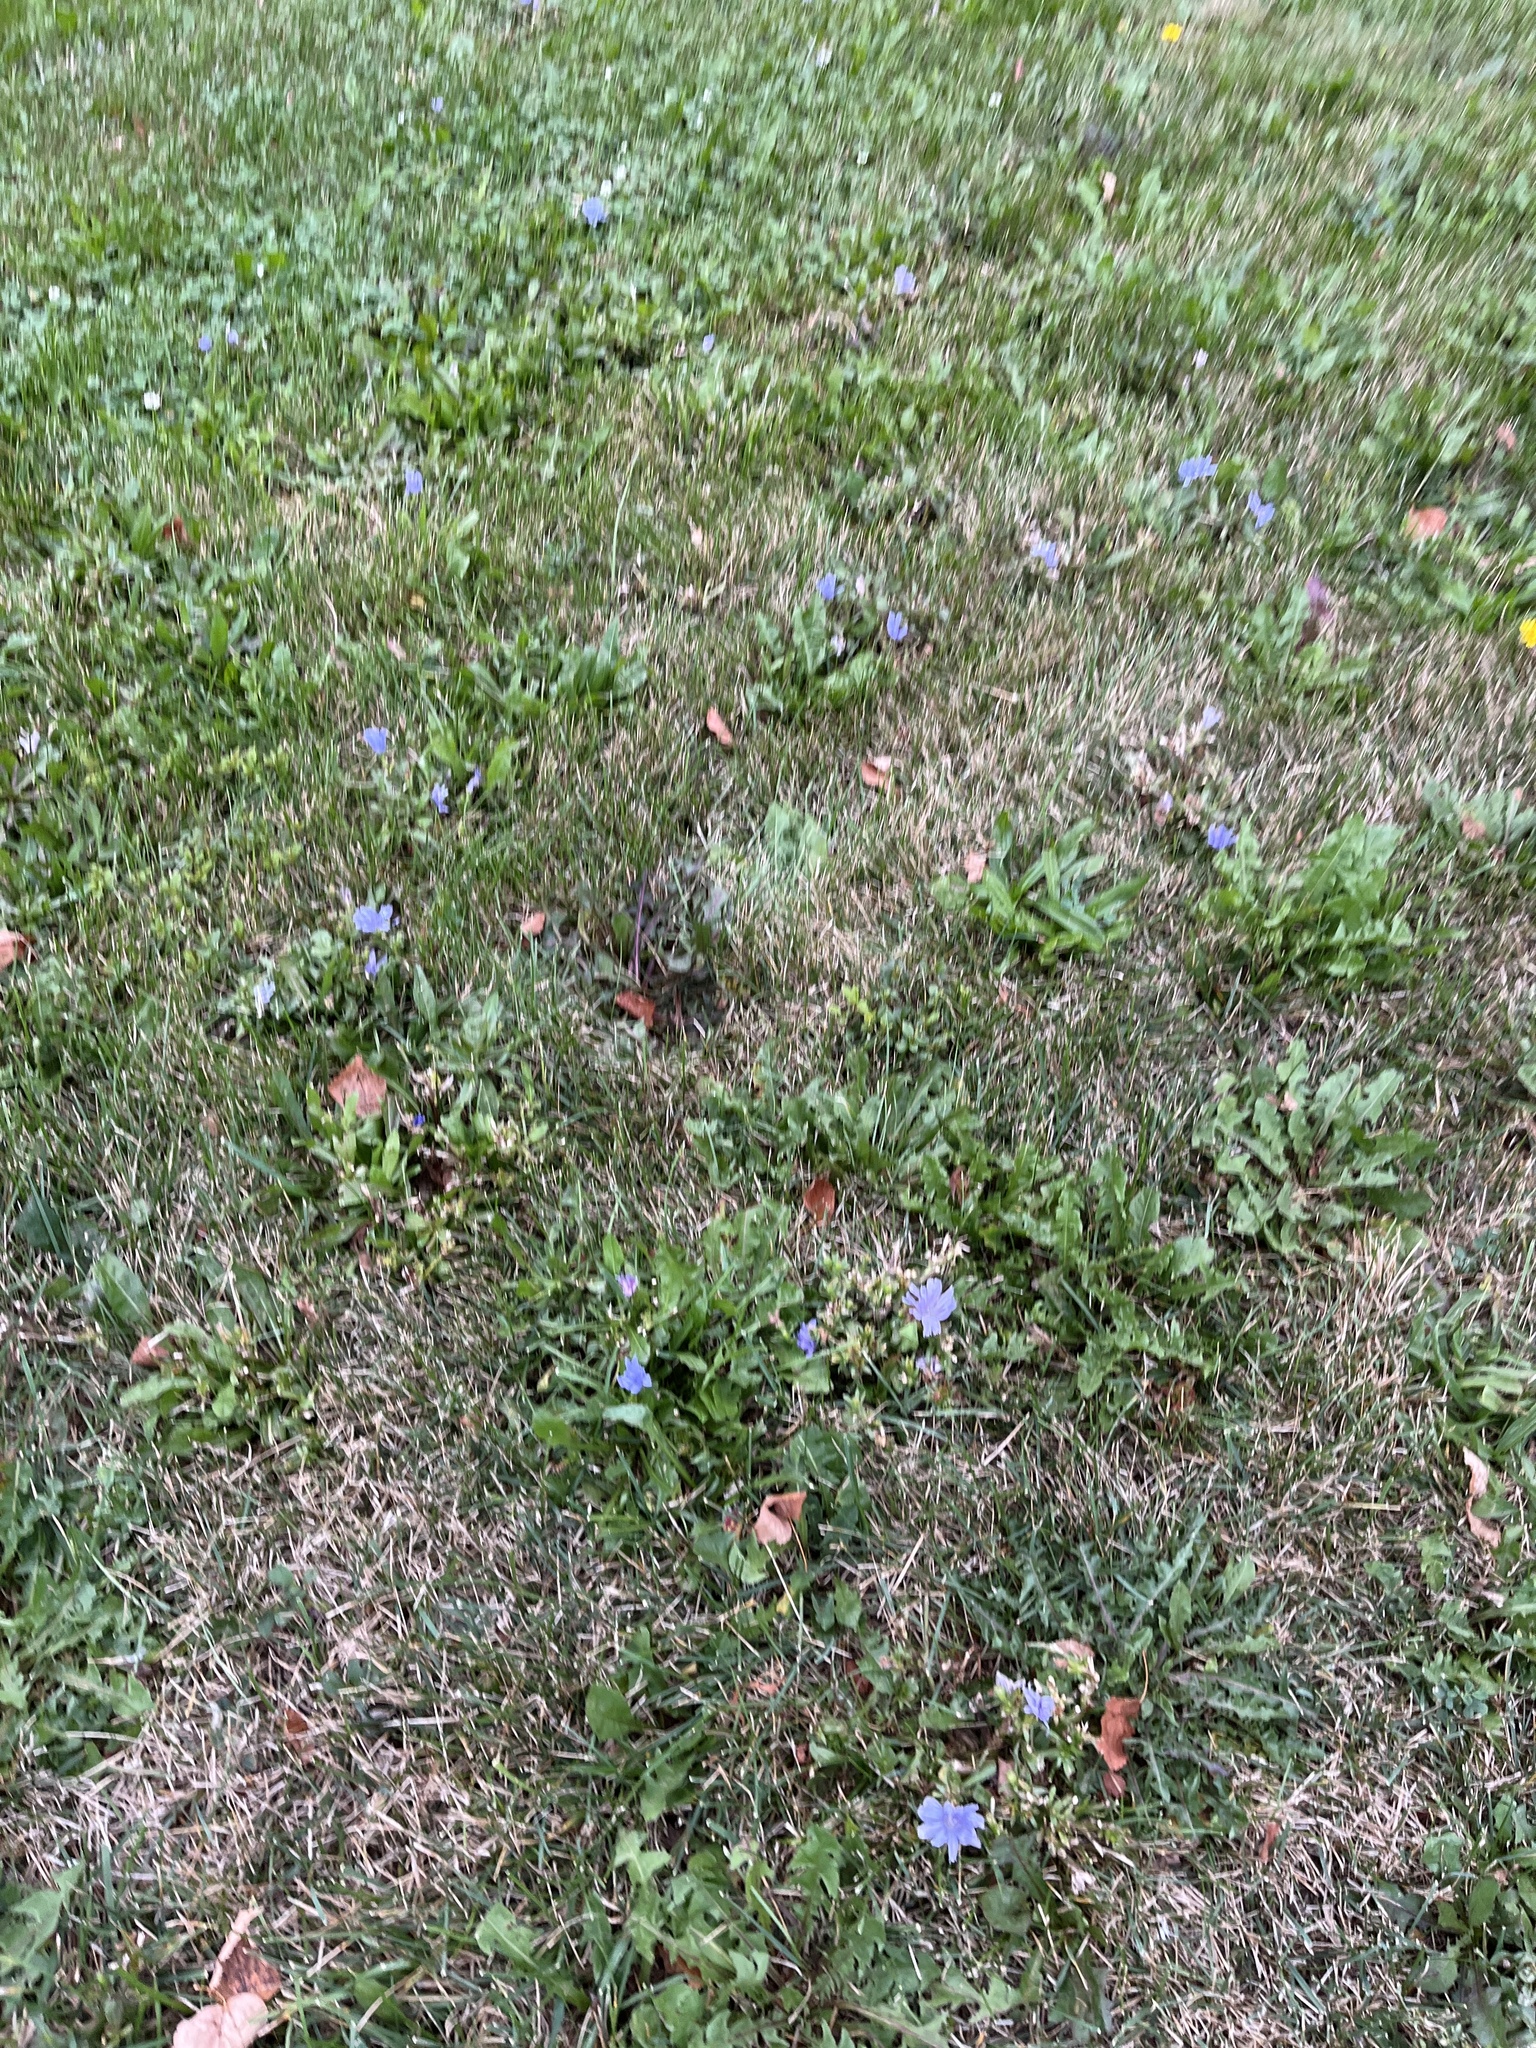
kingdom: Plantae
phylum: Tracheophyta
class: Magnoliopsida
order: Asterales
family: Asteraceae
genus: Cichorium
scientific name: Cichorium intybus
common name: Chicory
